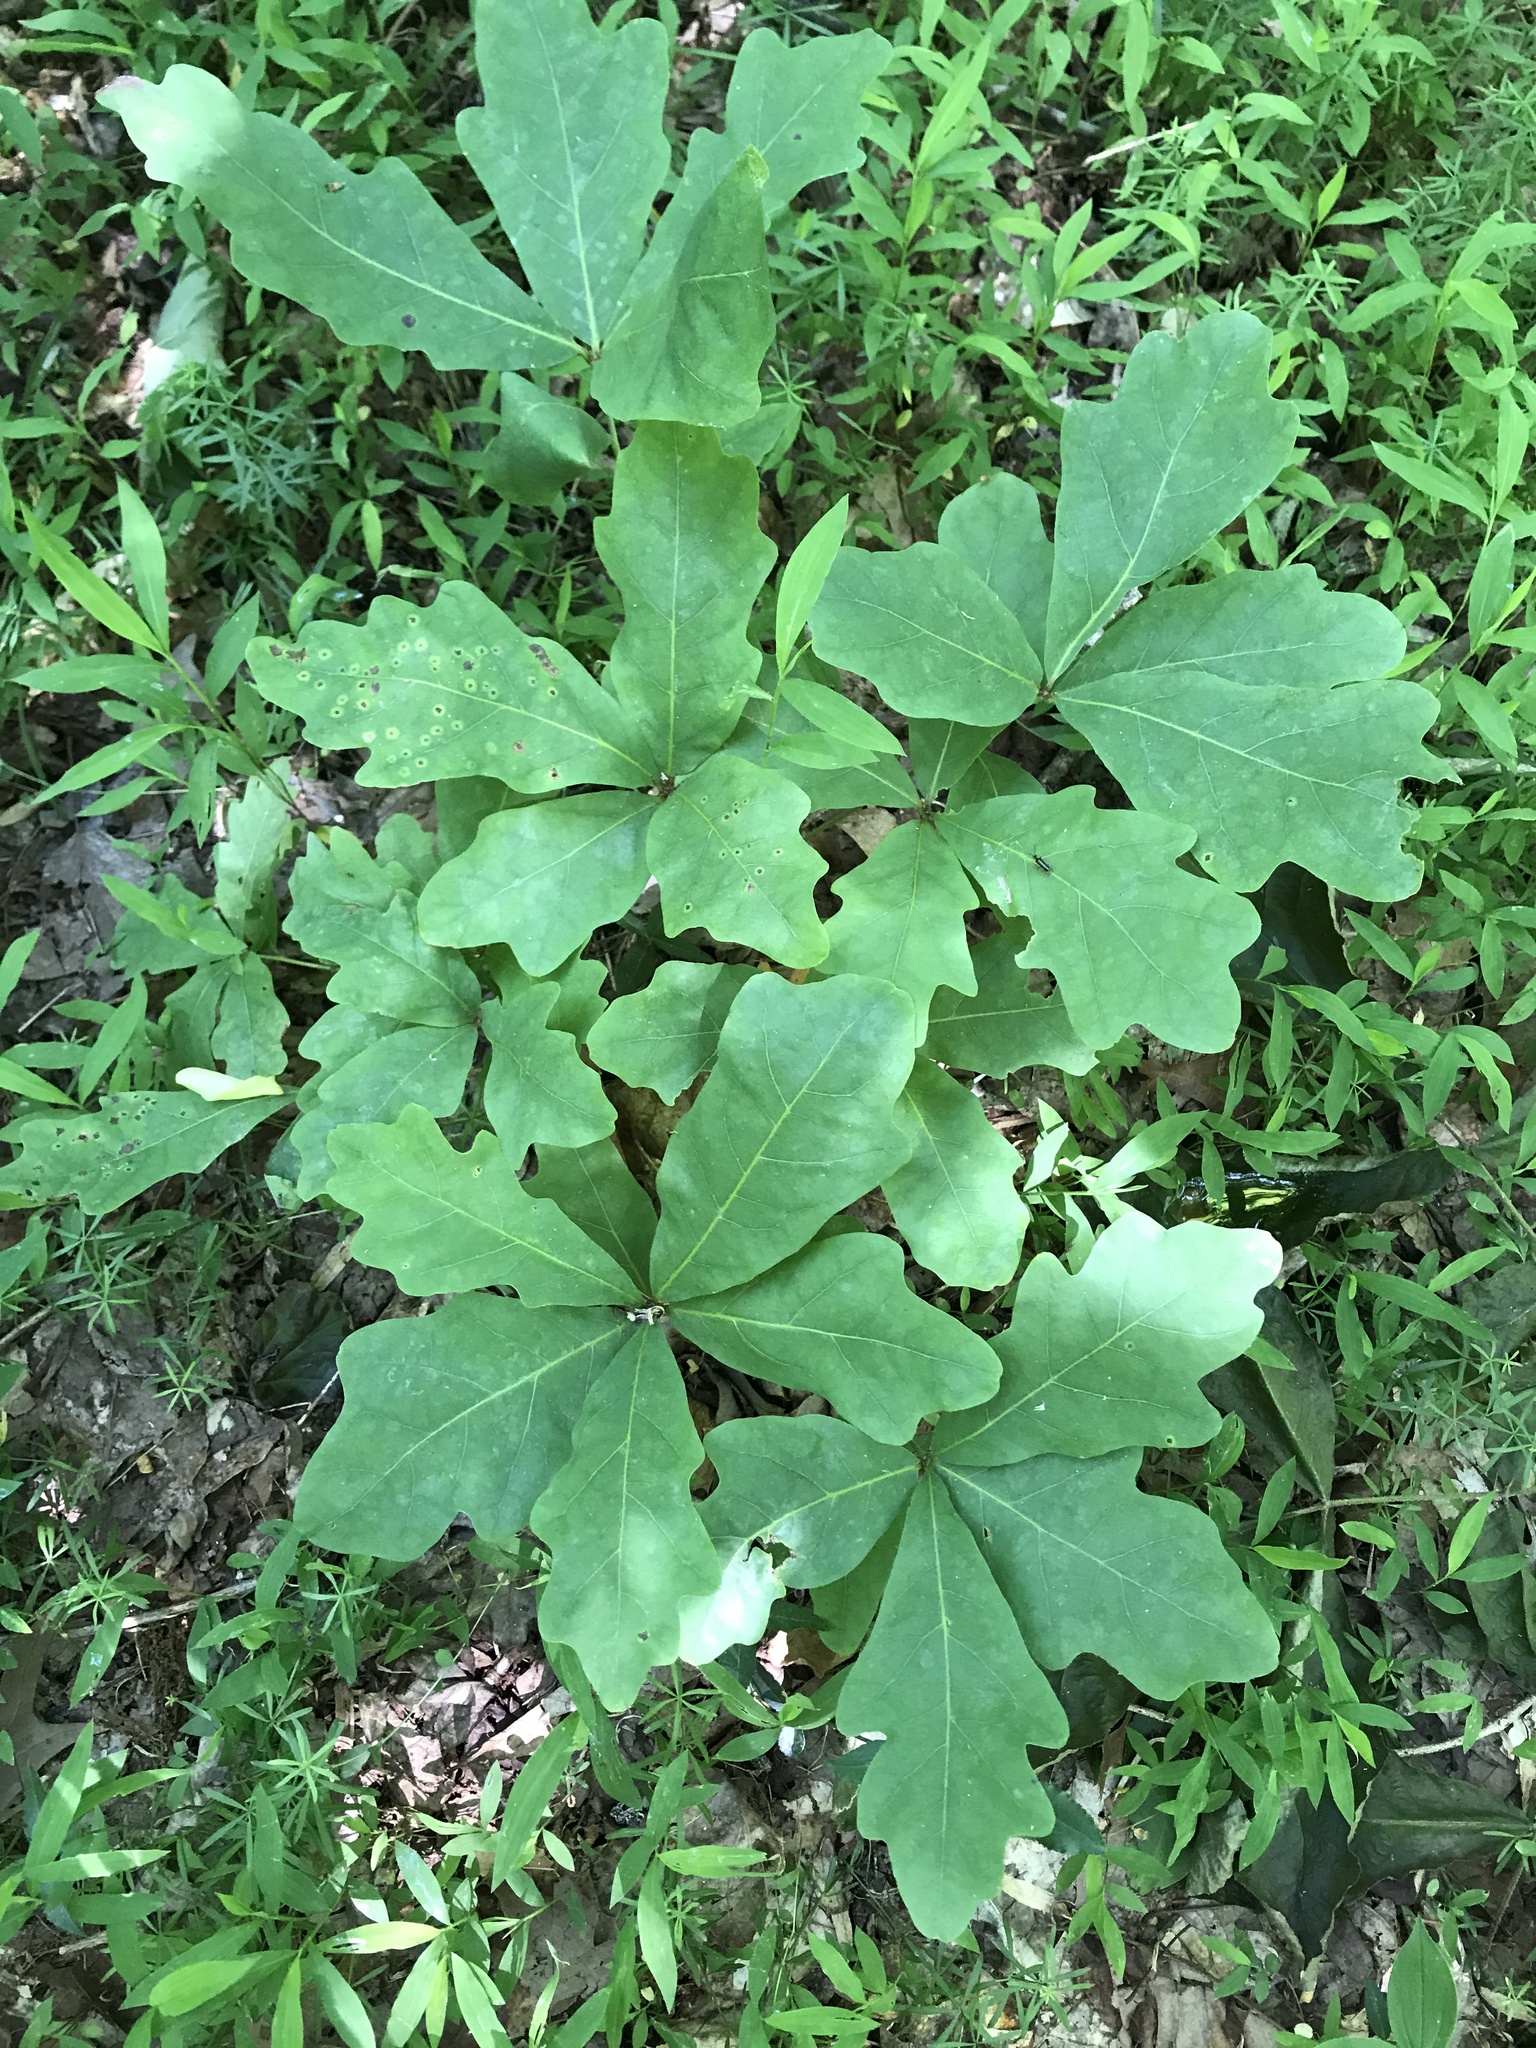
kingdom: Plantae
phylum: Tracheophyta
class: Magnoliopsida
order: Fagales
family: Fagaceae
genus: Quercus
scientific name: Quercus alba
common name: White oak
